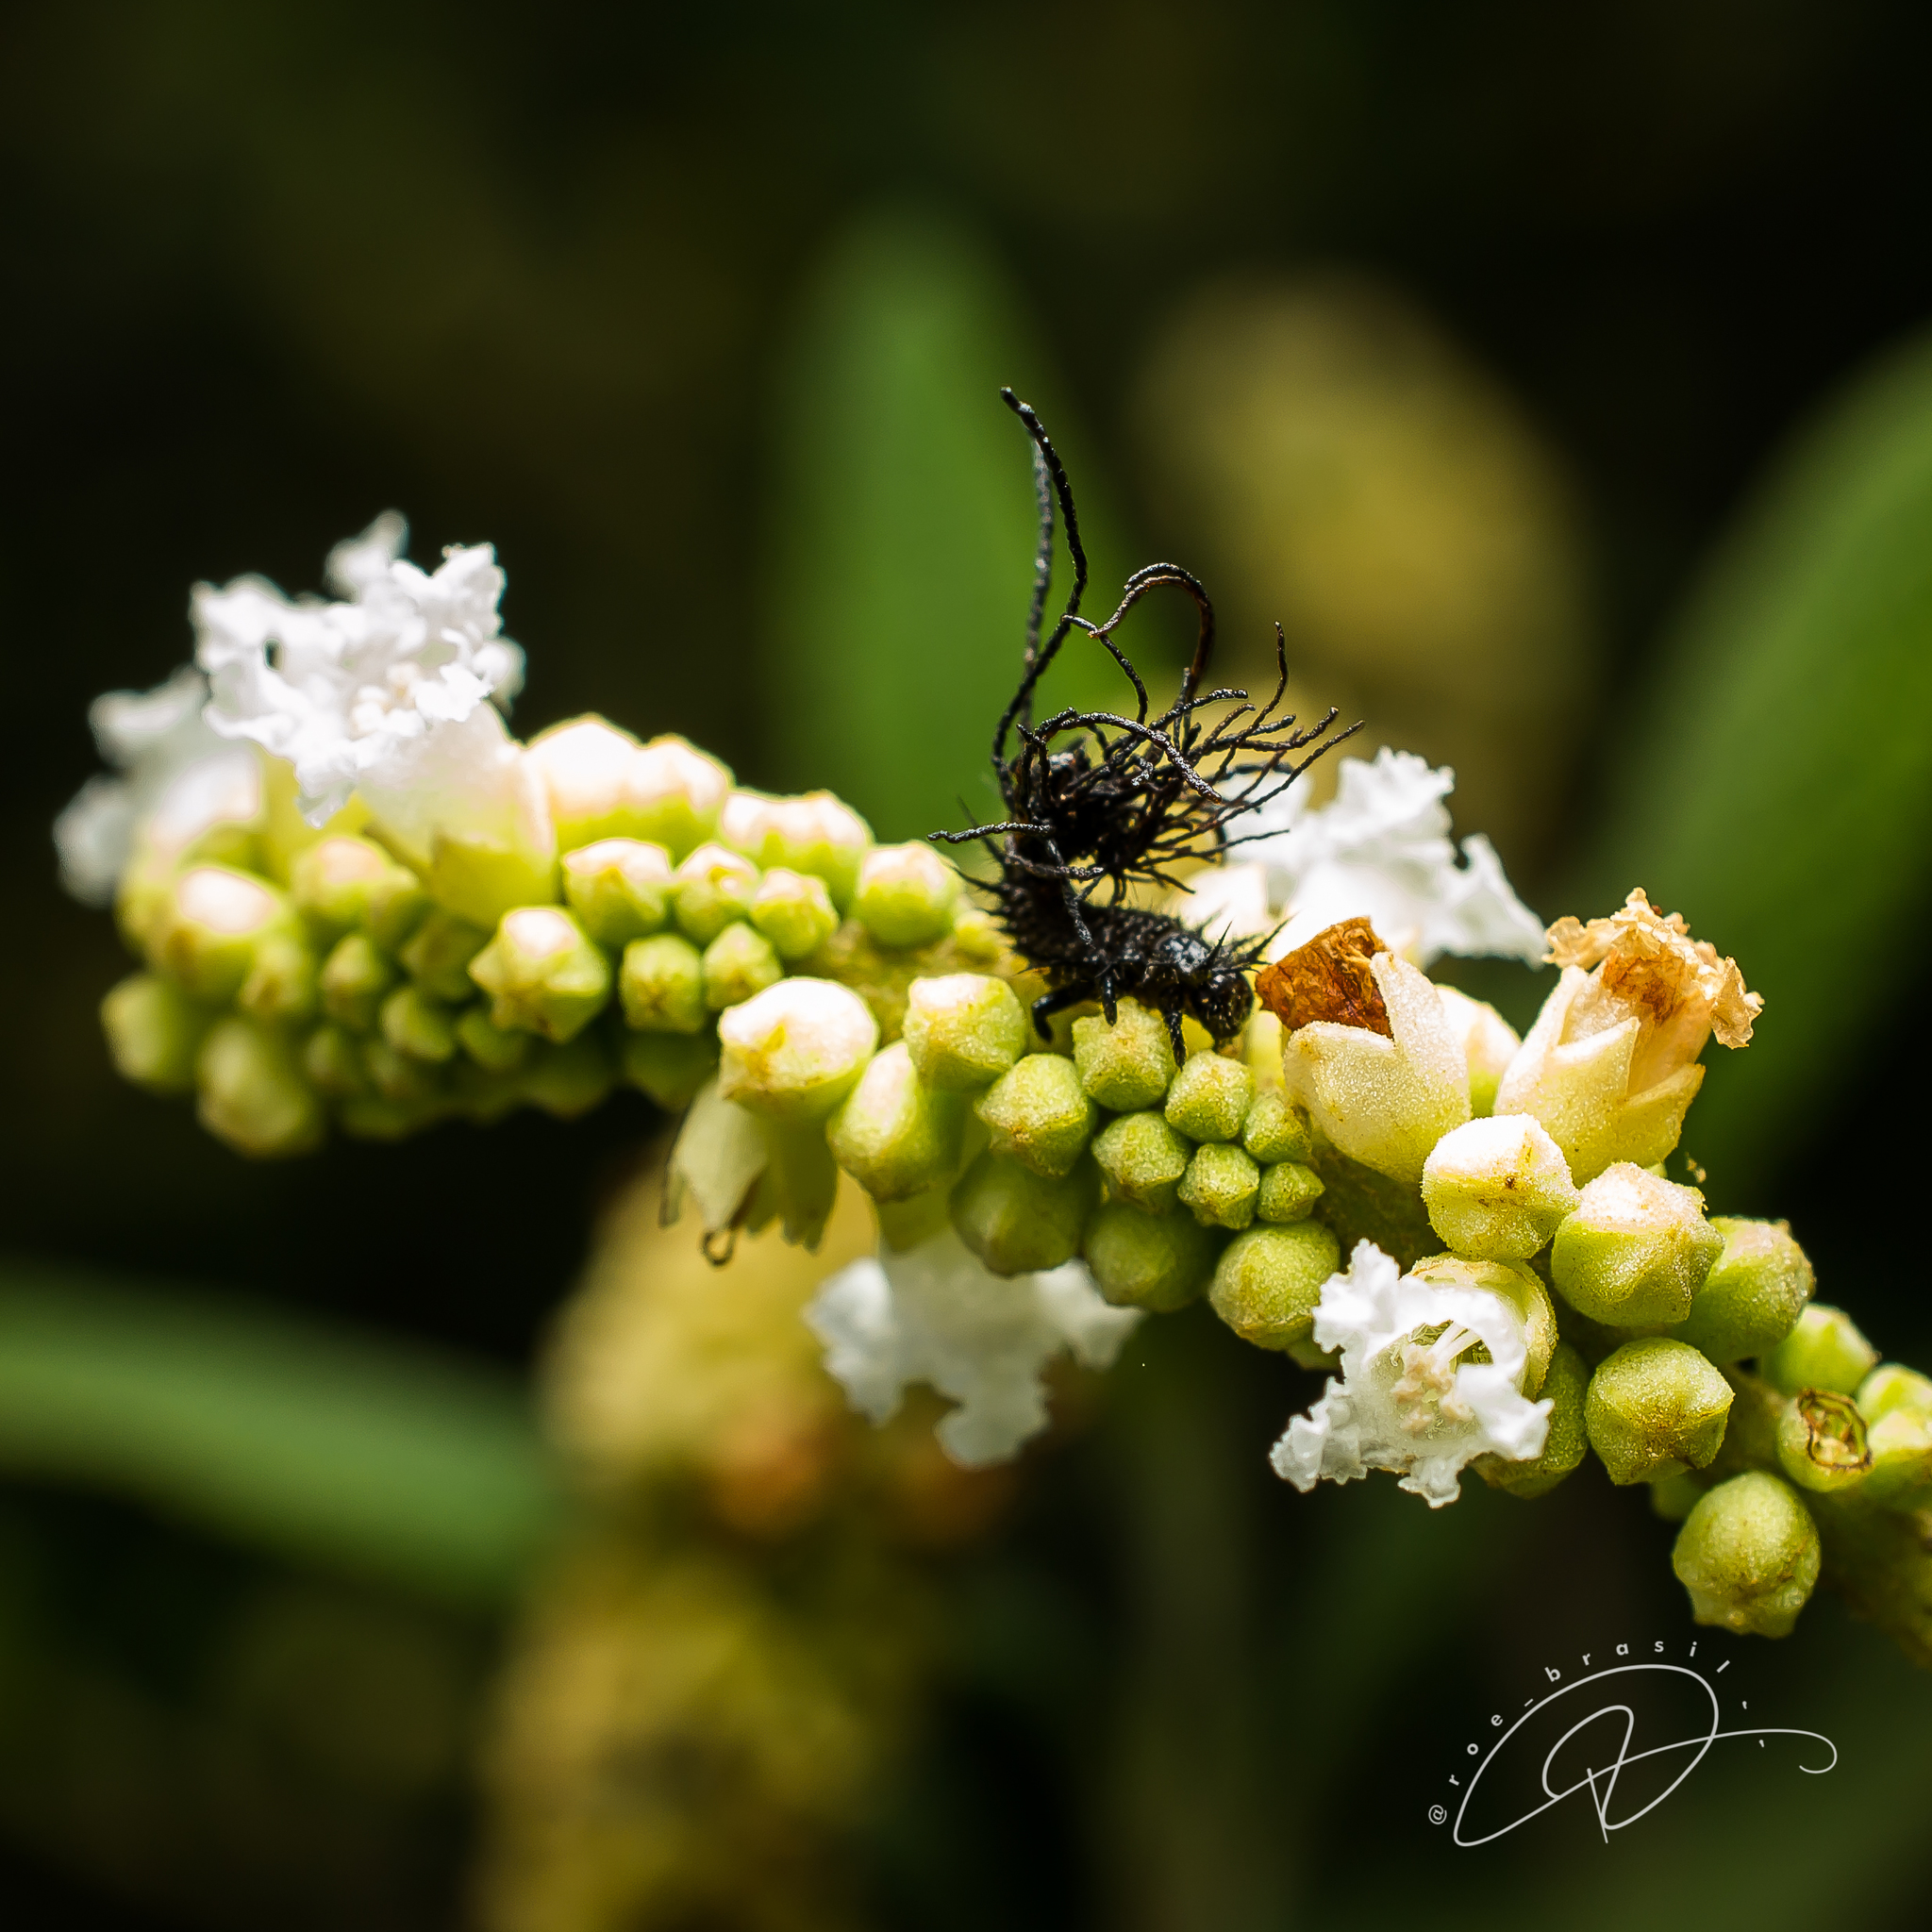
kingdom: Plantae
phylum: Tracheophyta
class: Magnoliopsida
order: Boraginales
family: Cordiaceae
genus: Varronia
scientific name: Varronia curassavica
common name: Black sage
